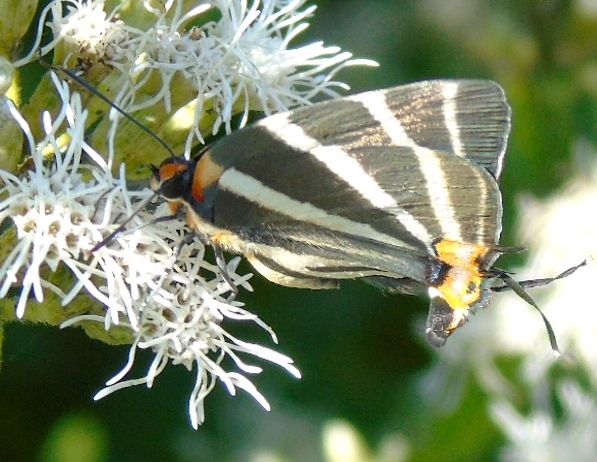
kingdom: Animalia
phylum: Arthropoda
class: Insecta
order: Lepidoptera
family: Lycaenidae
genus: Thecla
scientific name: Thecla bathildis
